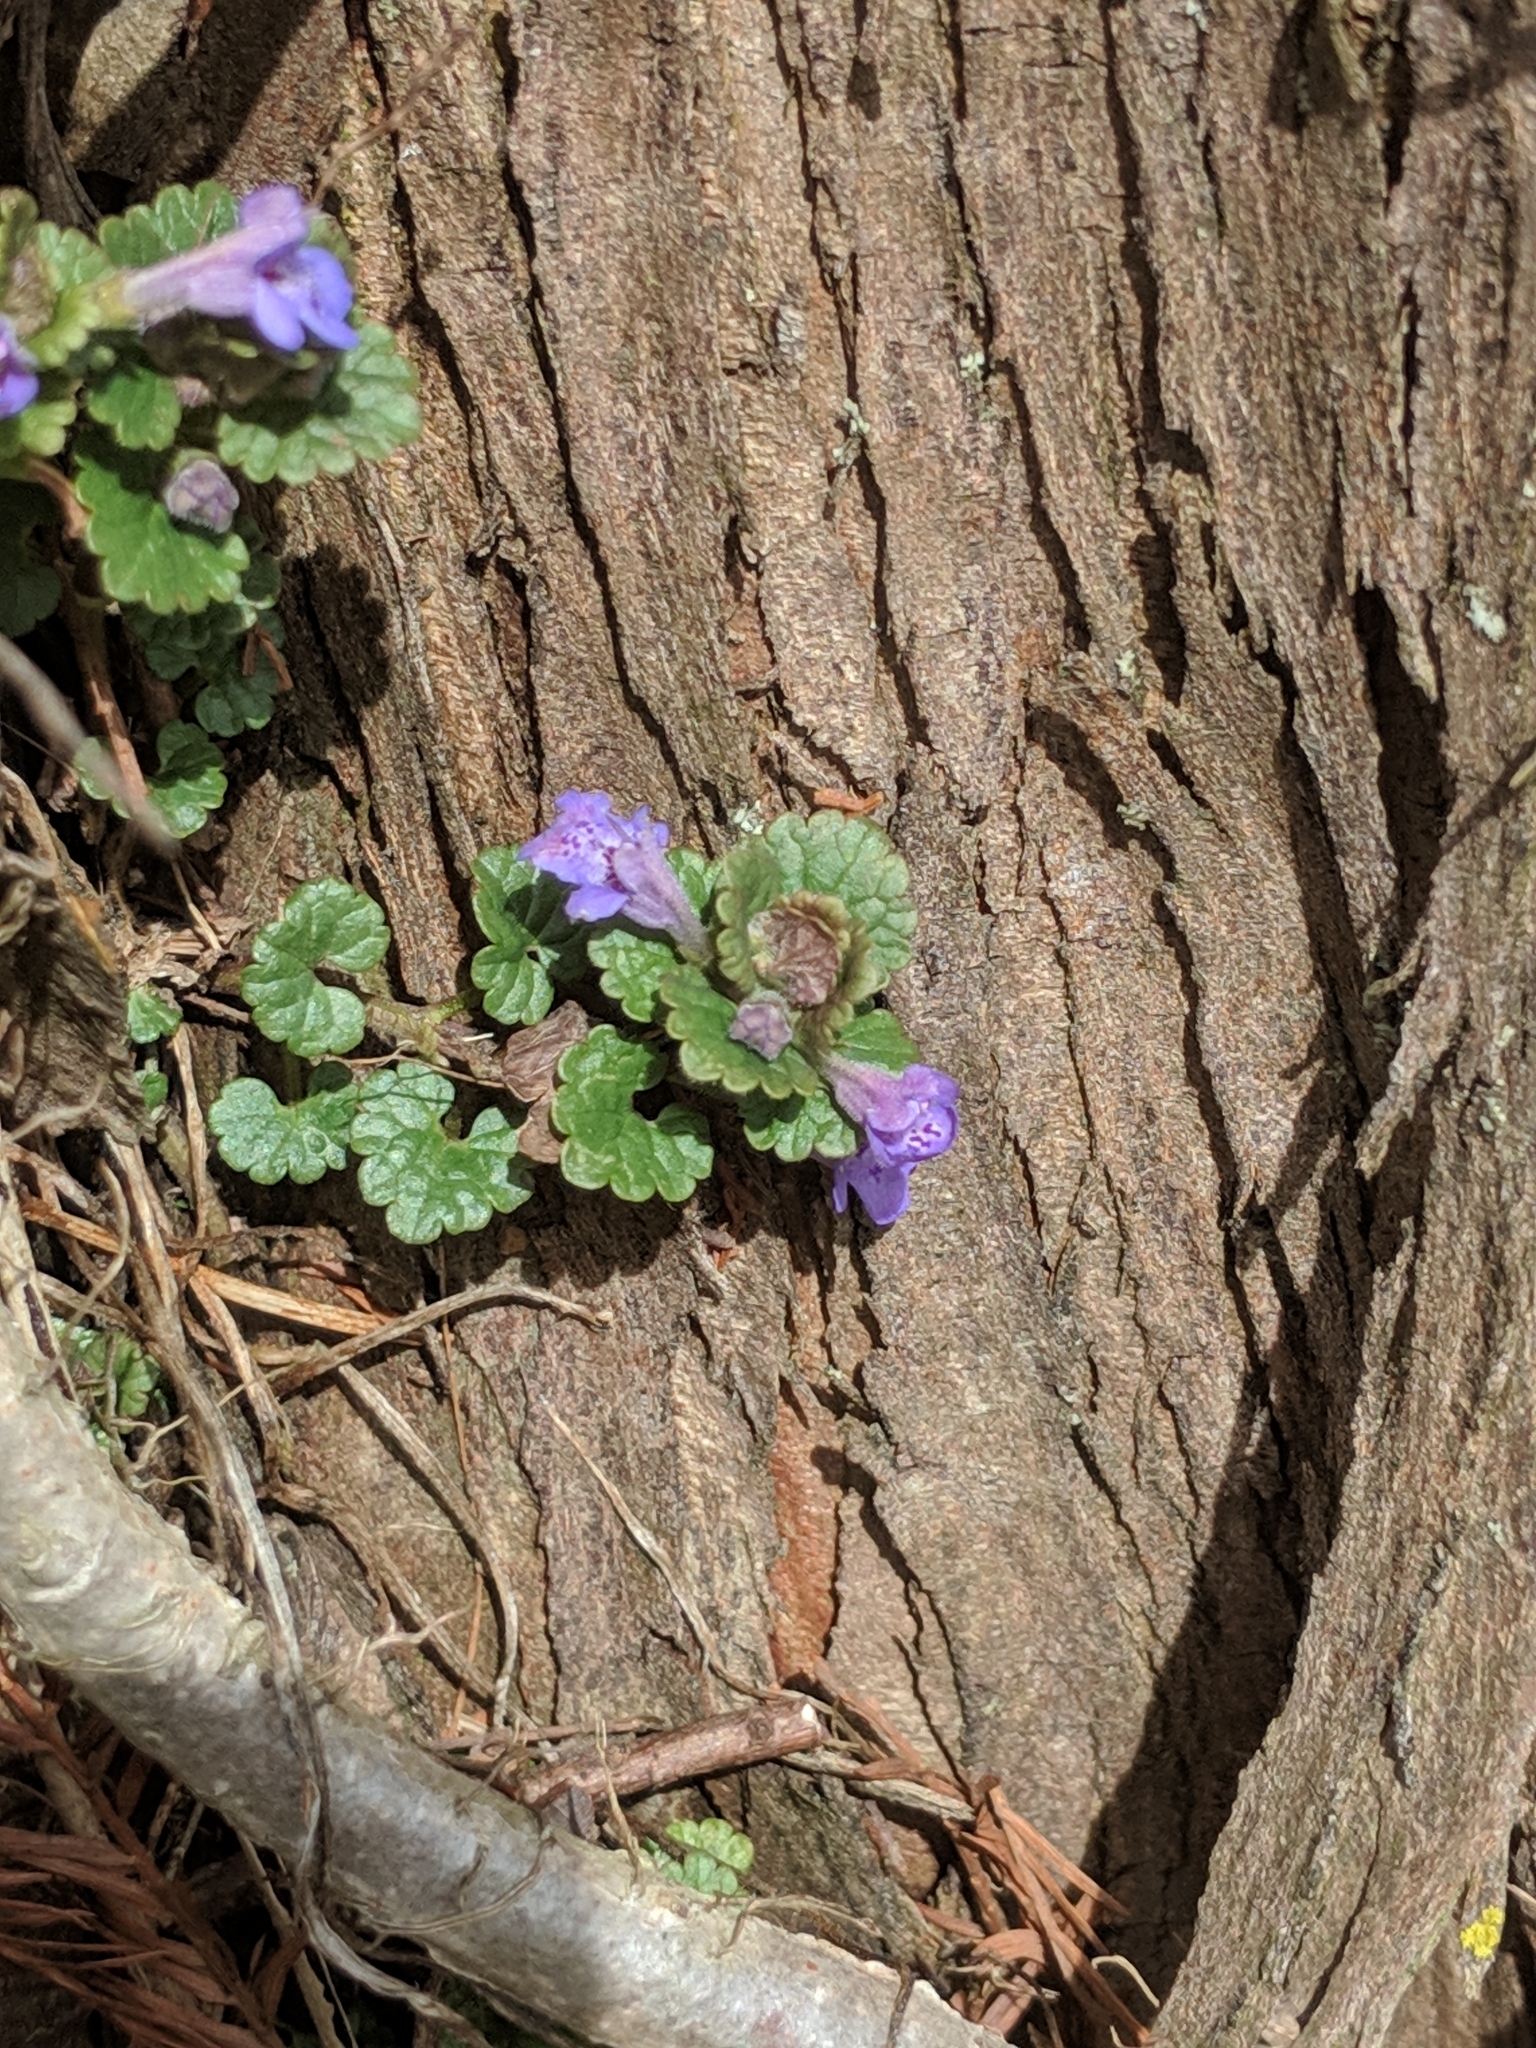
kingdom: Plantae
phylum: Tracheophyta
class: Magnoliopsida
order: Lamiales
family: Lamiaceae
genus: Glechoma
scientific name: Glechoma hederacea
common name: Ground ivy
